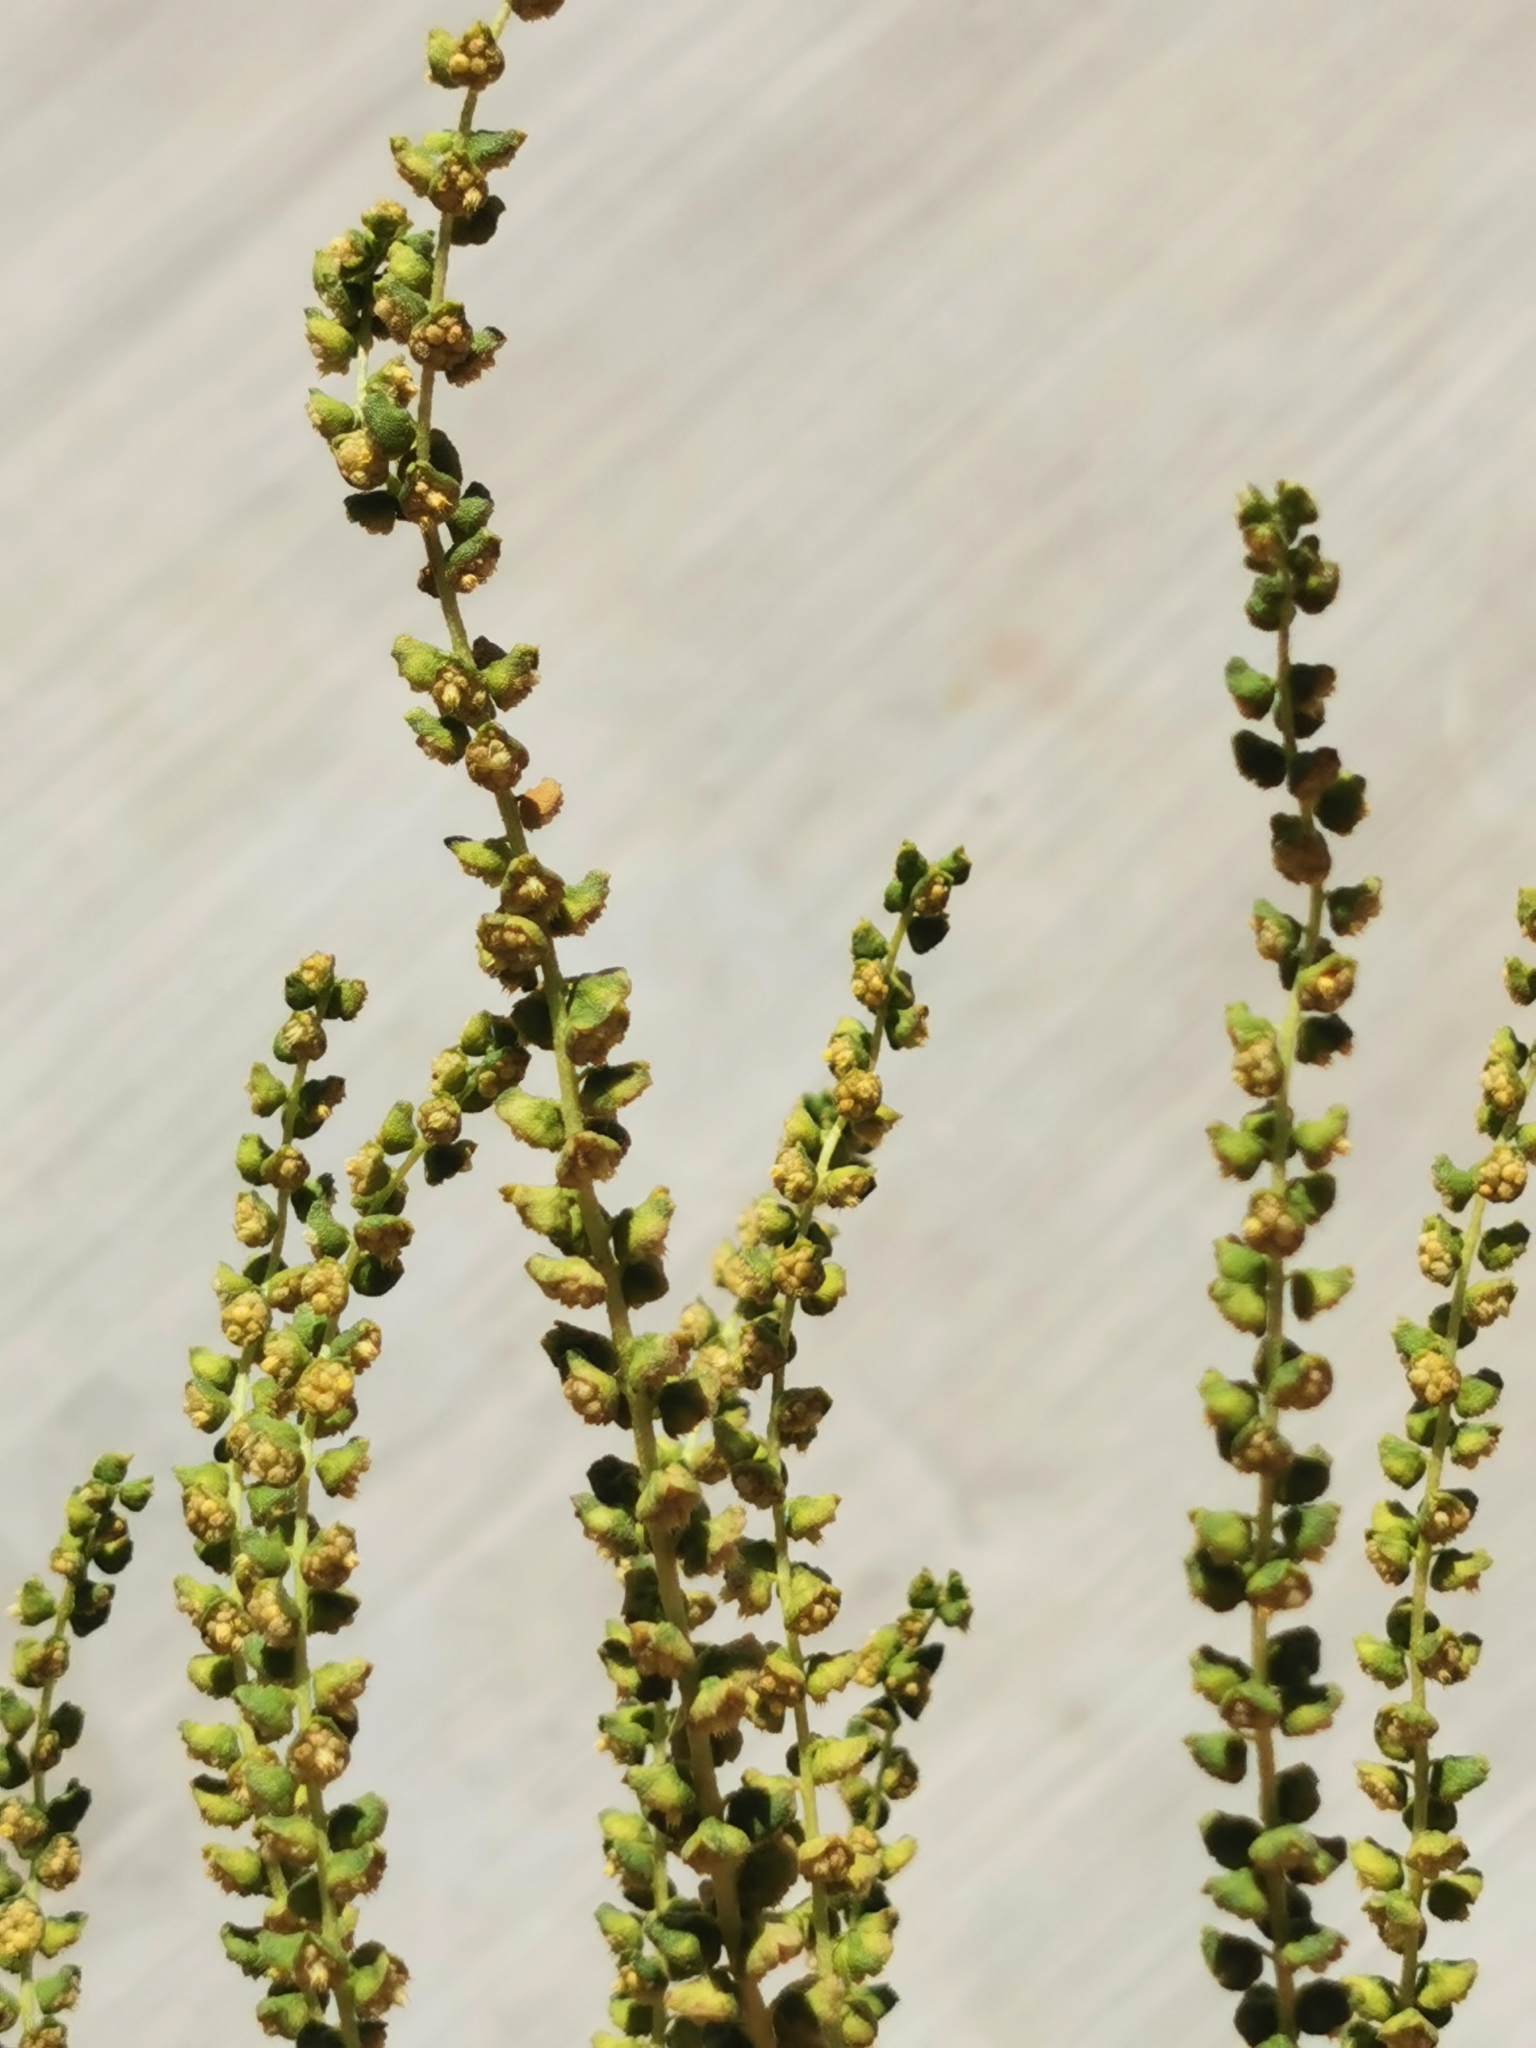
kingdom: Plantae
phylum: Tracheophyta
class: Magnoliopsida
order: Asterales
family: Asteraceae
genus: Ambrosia
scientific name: Ambrosia psilostachya
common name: Perennial ragweed
